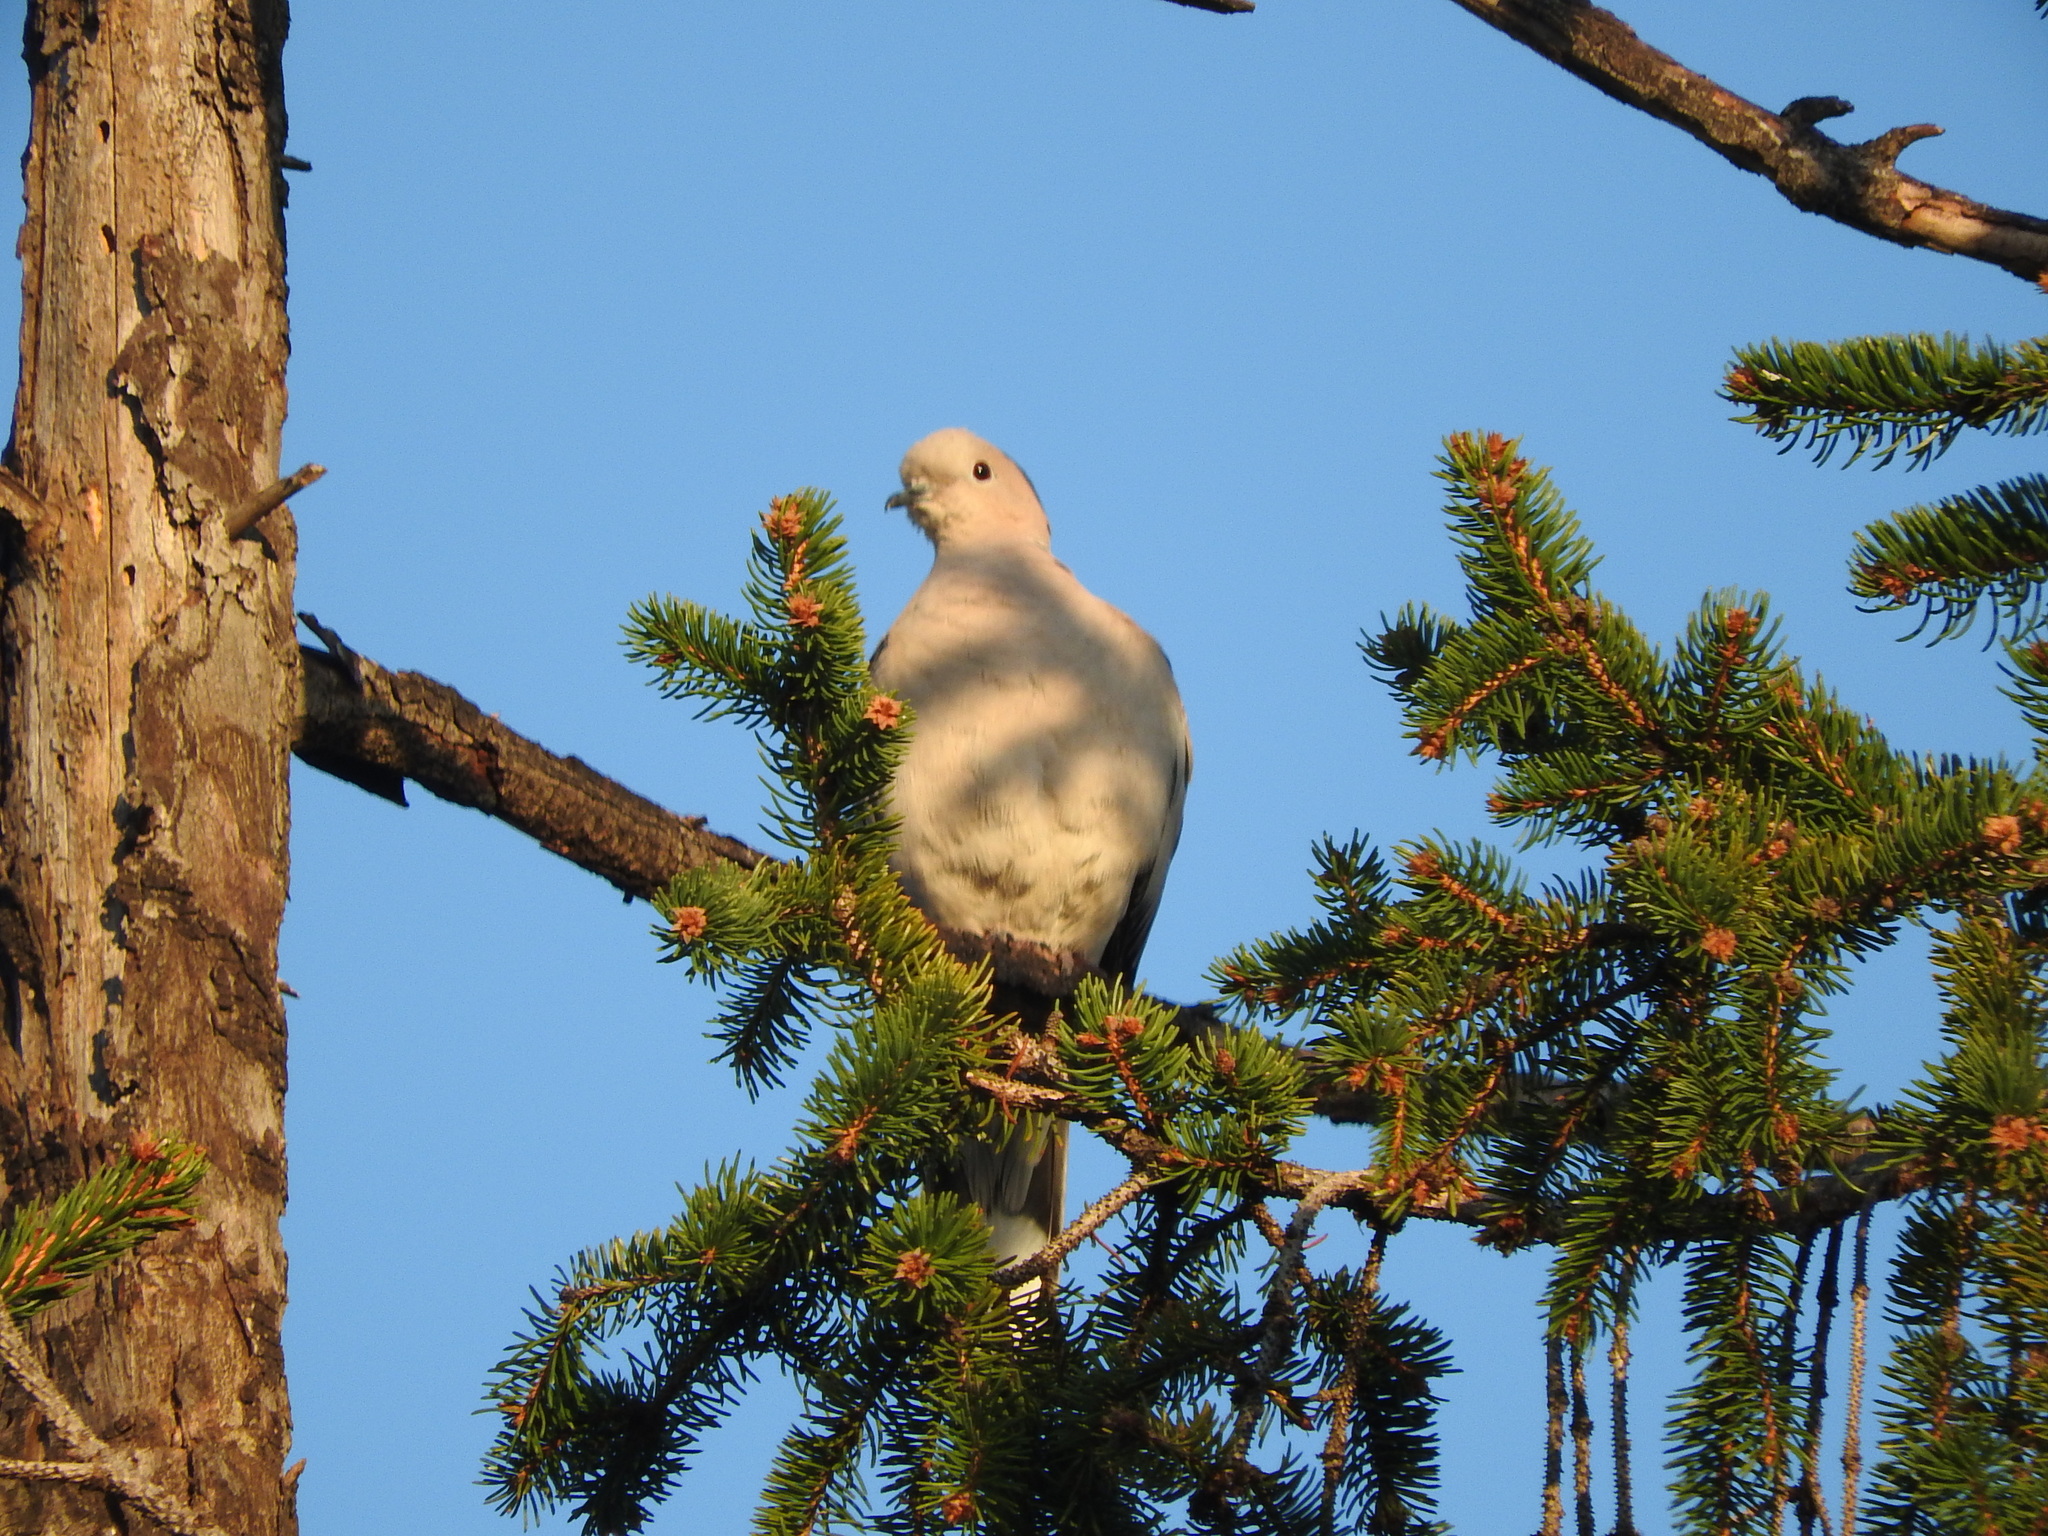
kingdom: Animalia
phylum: Chordata
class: Aves
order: Columbiformes
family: Columbidae
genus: Streptopelia
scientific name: Streptopelia decaocto
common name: Eurasian collared dove
